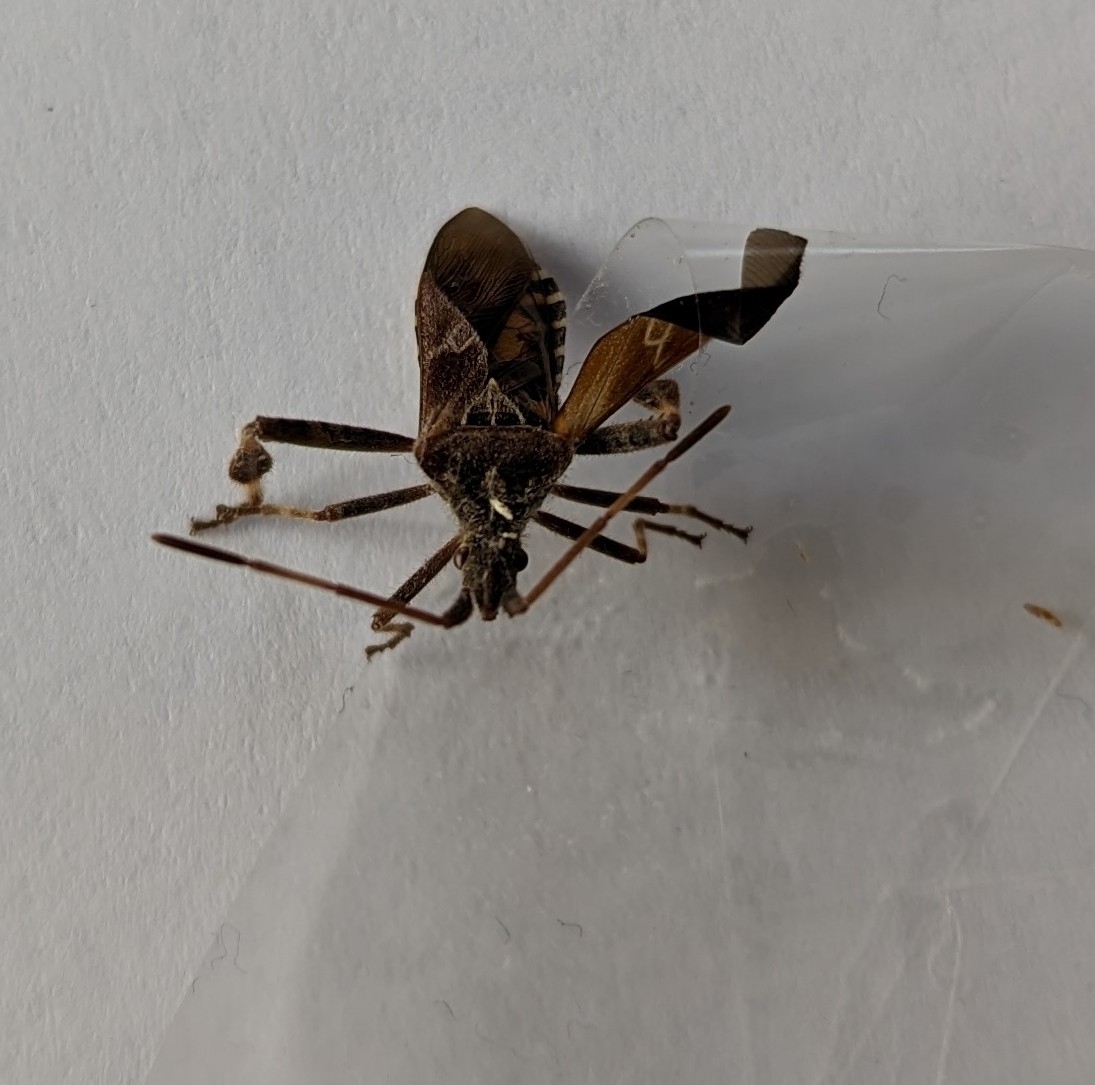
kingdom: Animalia
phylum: Arthropoda
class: Insecta
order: Hemiptera
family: Coreidae
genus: Leptoglossus
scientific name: Leptoglossus occidentalis
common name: Western conifer-seed bug
